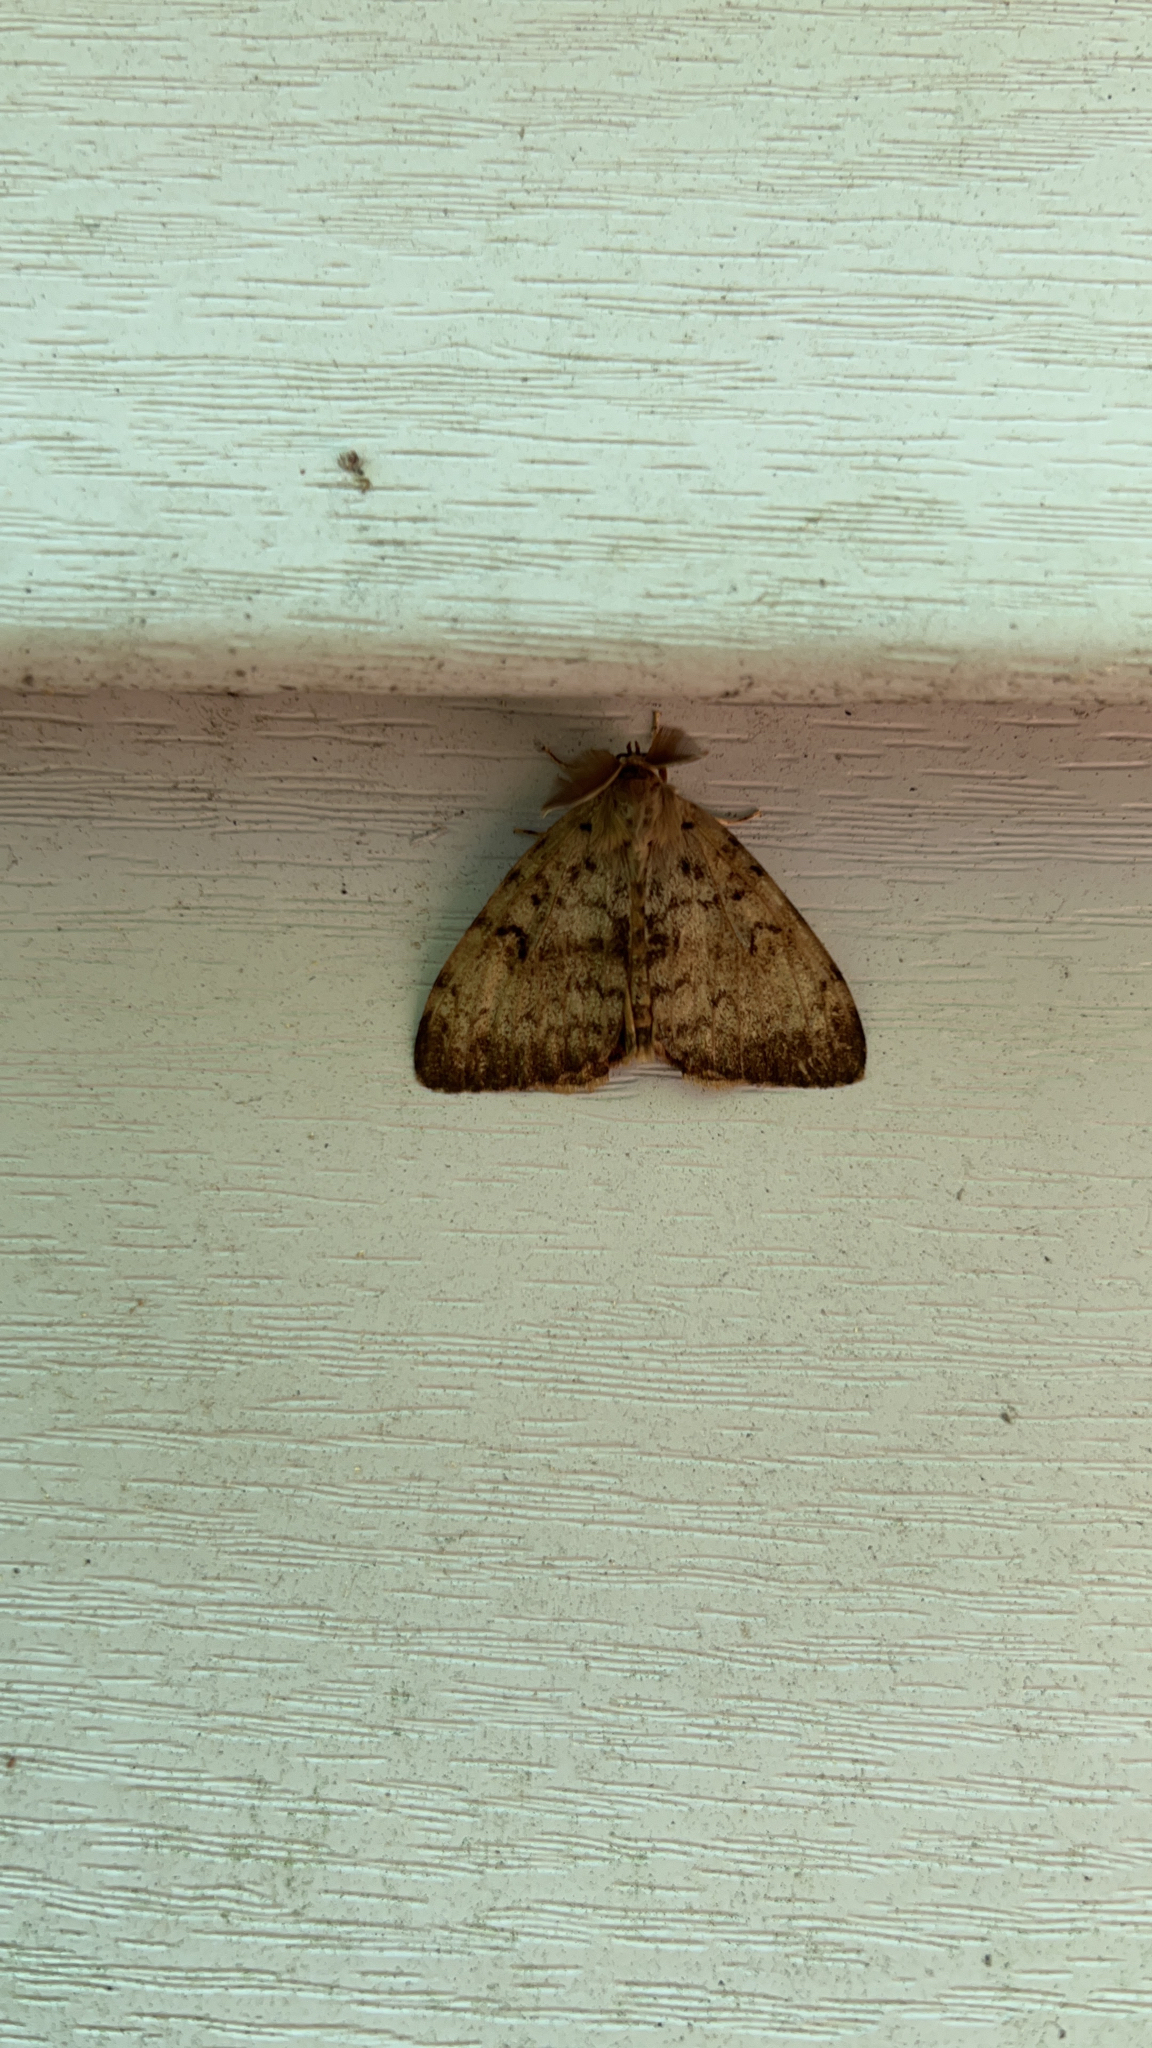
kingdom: Animalia
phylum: Arthropoda
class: Insecta
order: Lepidoptera
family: Erebidae
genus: Lymantria
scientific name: Lymantria dispar
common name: Gypsy moth
